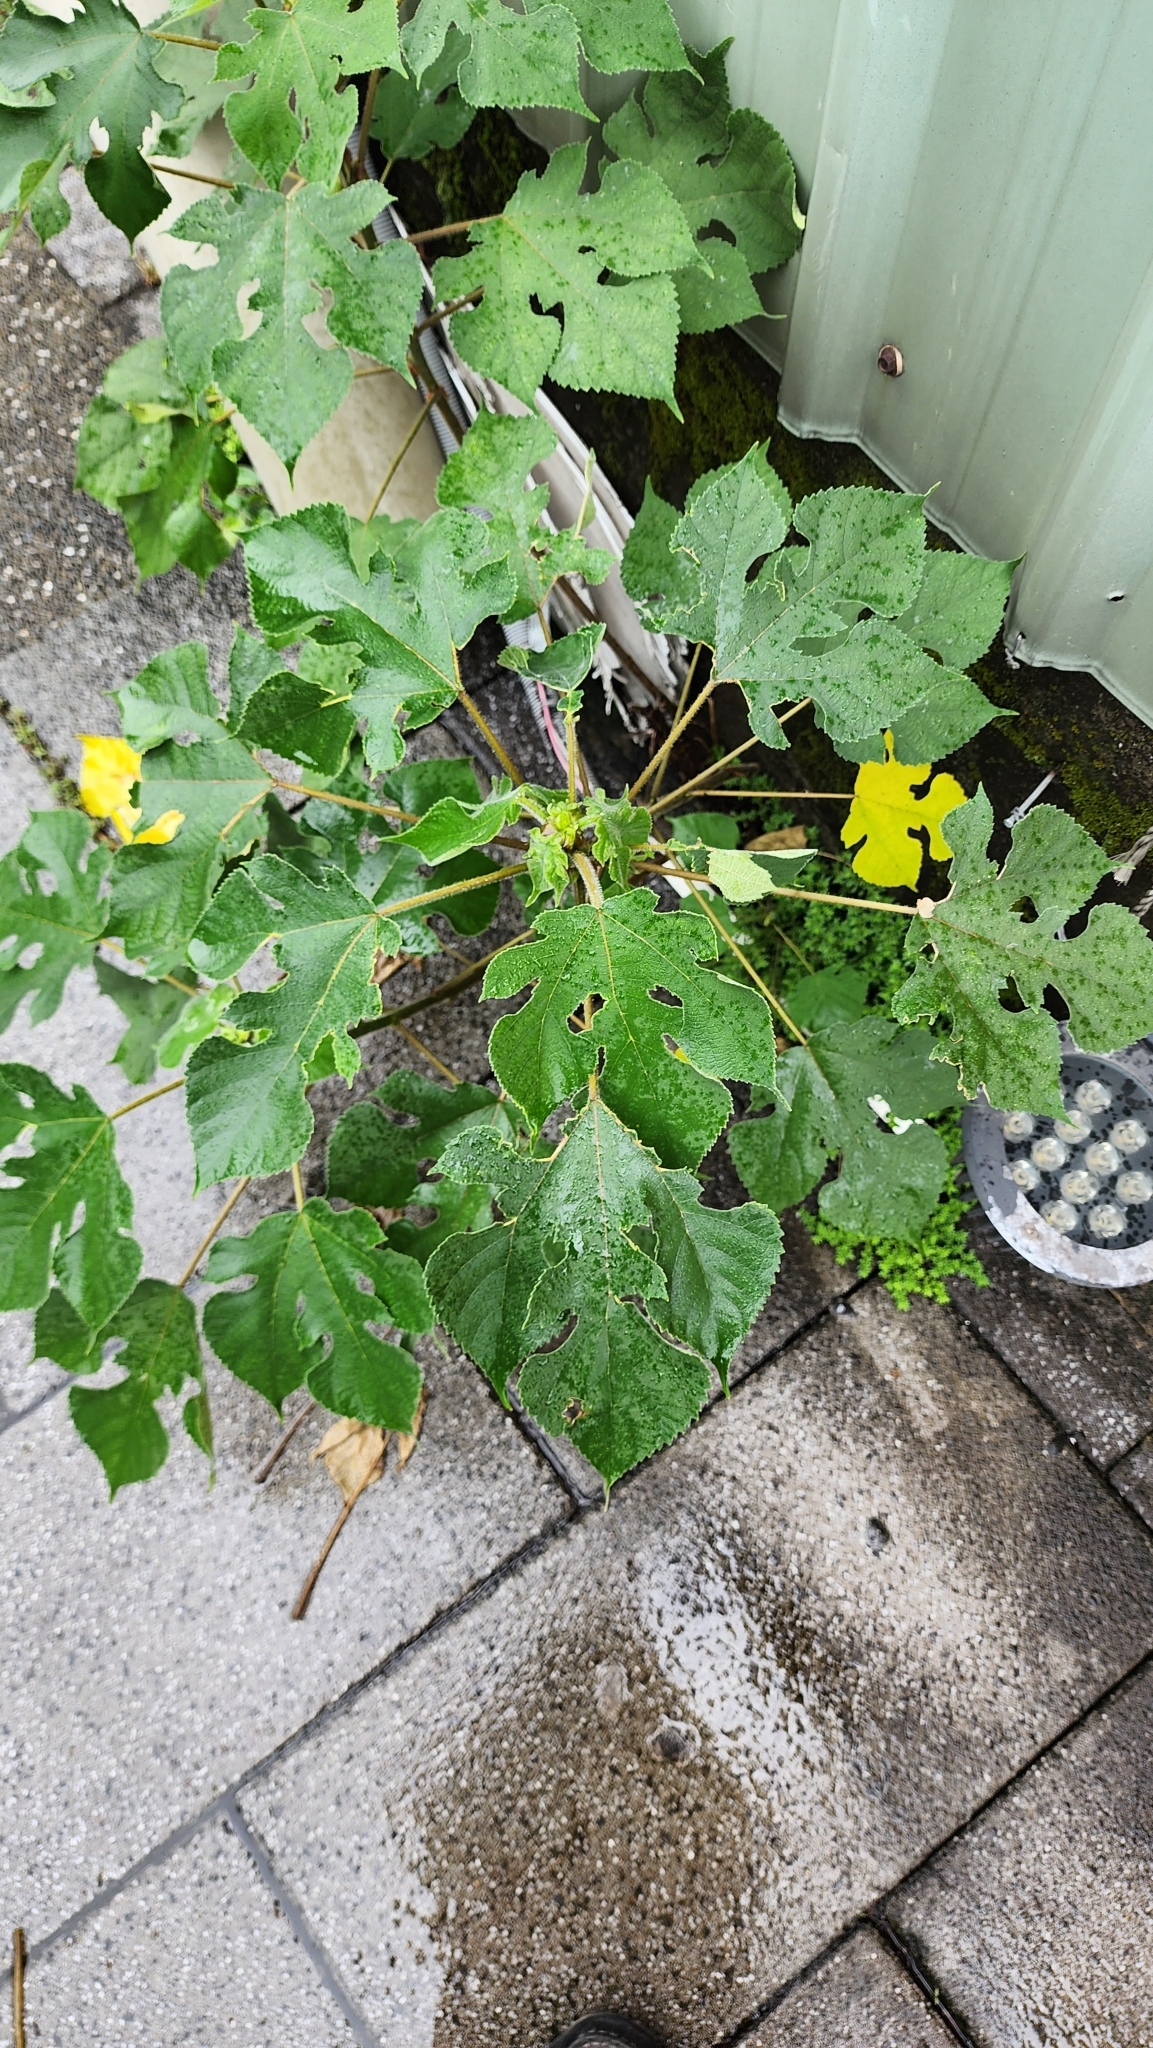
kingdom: Plantae
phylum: Tracheophyta
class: Magnoliopsida
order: Rosales
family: Moraceae
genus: Broussonetia
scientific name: Broussonetia papyrifera
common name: Paper mulberry
